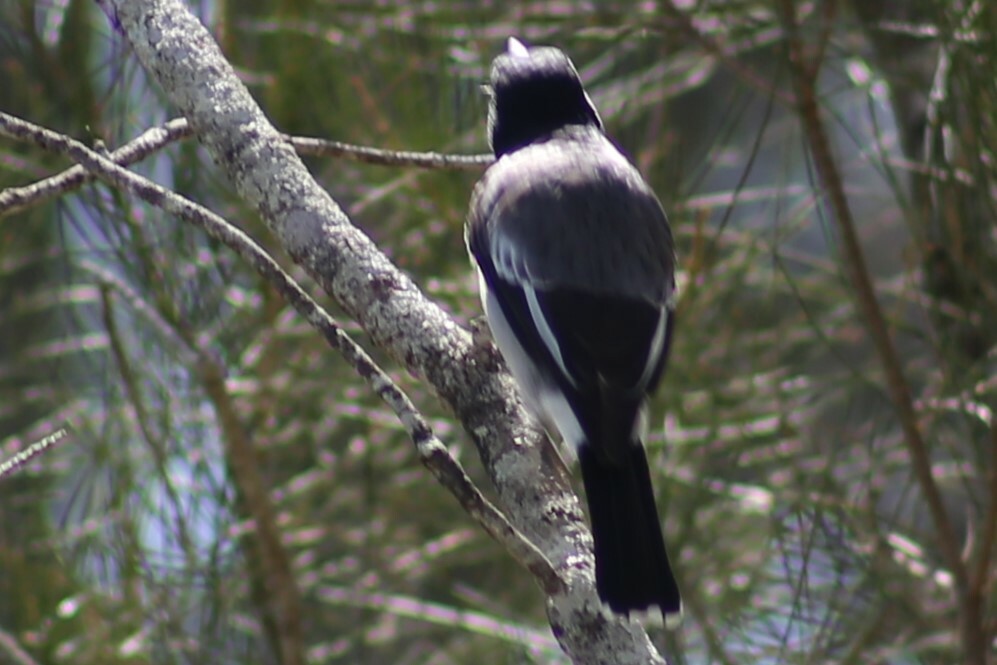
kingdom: Animalia
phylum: Chordata
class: Aves
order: Passeriformes
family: Cracticidae
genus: Cracticus
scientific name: Cracticus torquatus
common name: Grey butcherbird
